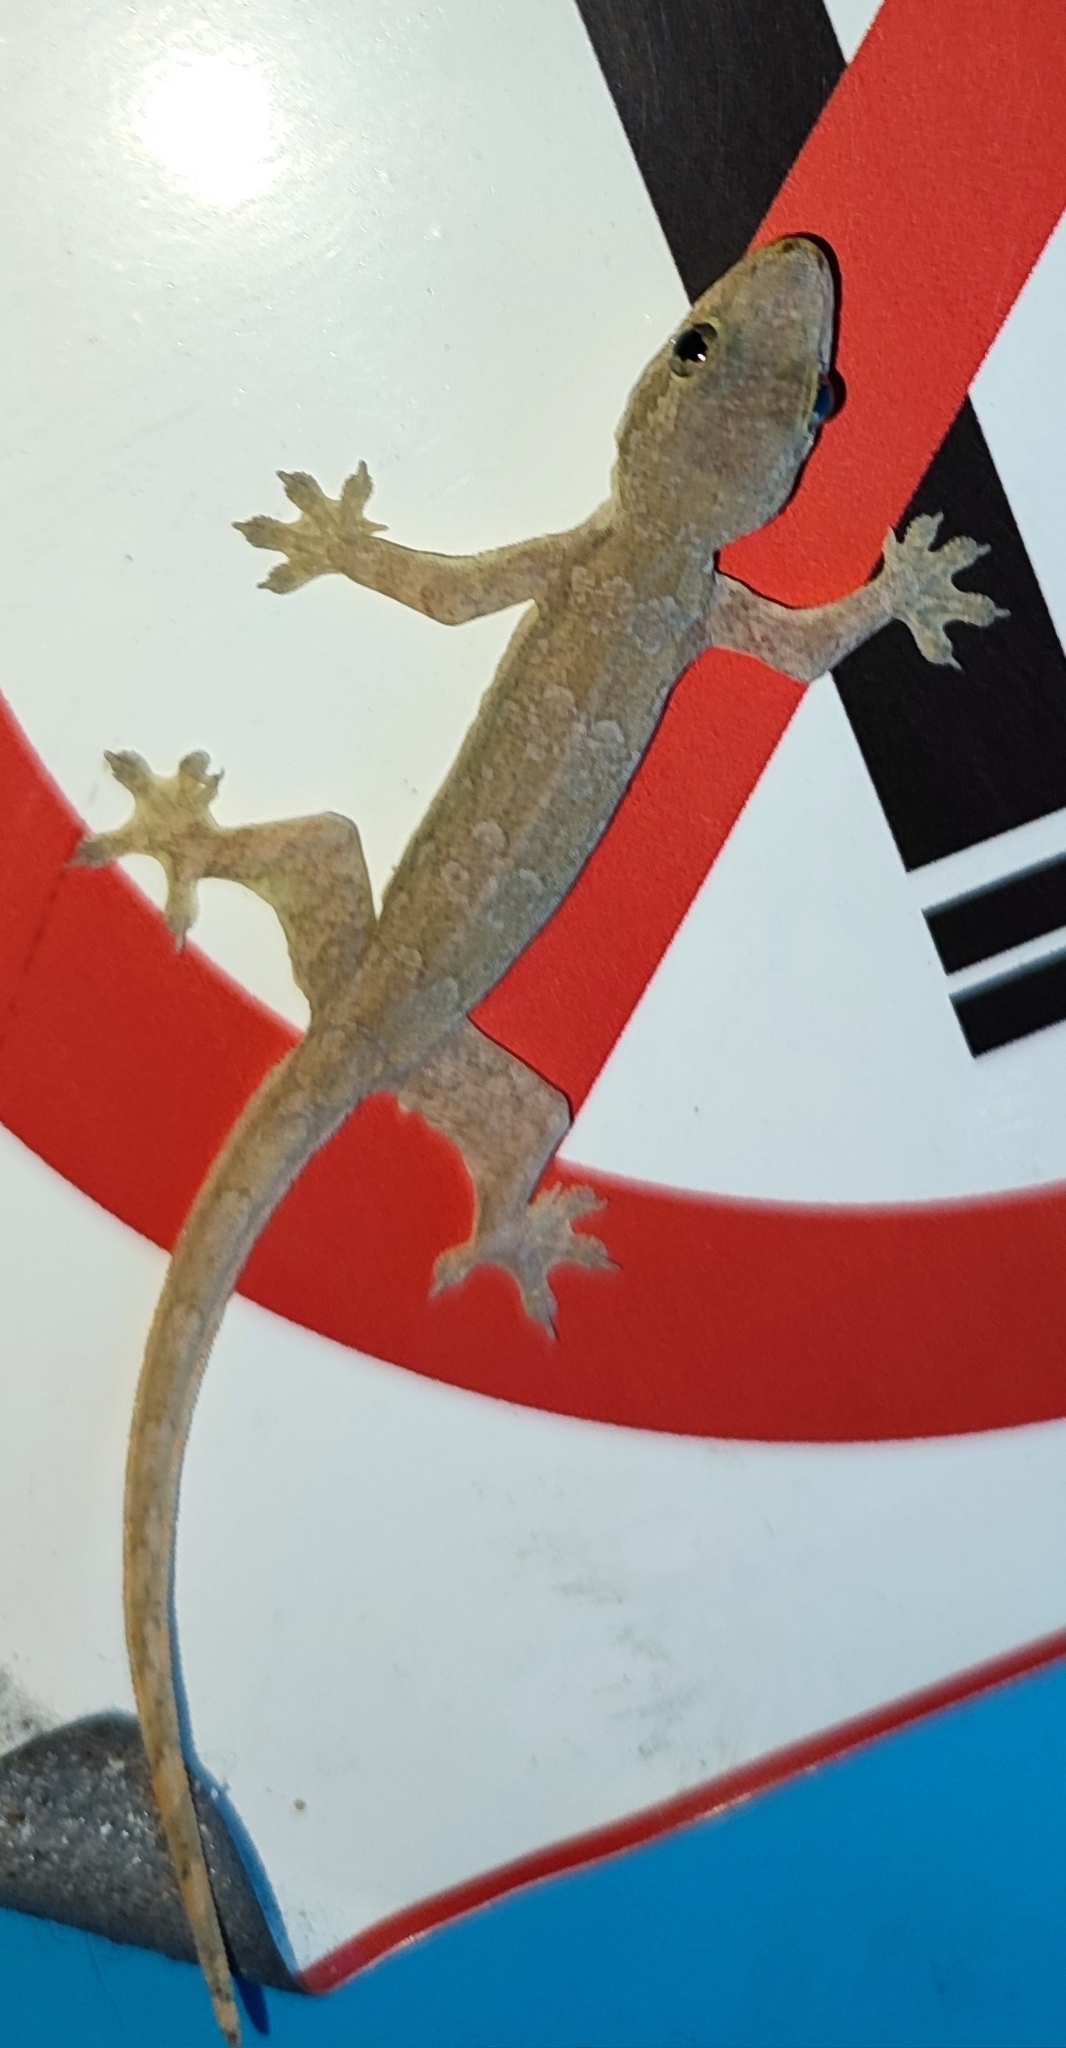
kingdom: Animalia
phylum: Chordata
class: Squamata
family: Gekkonidae
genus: Hemidactylus
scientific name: Hemidactylus platyurus
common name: Flat-tailed house gecko
